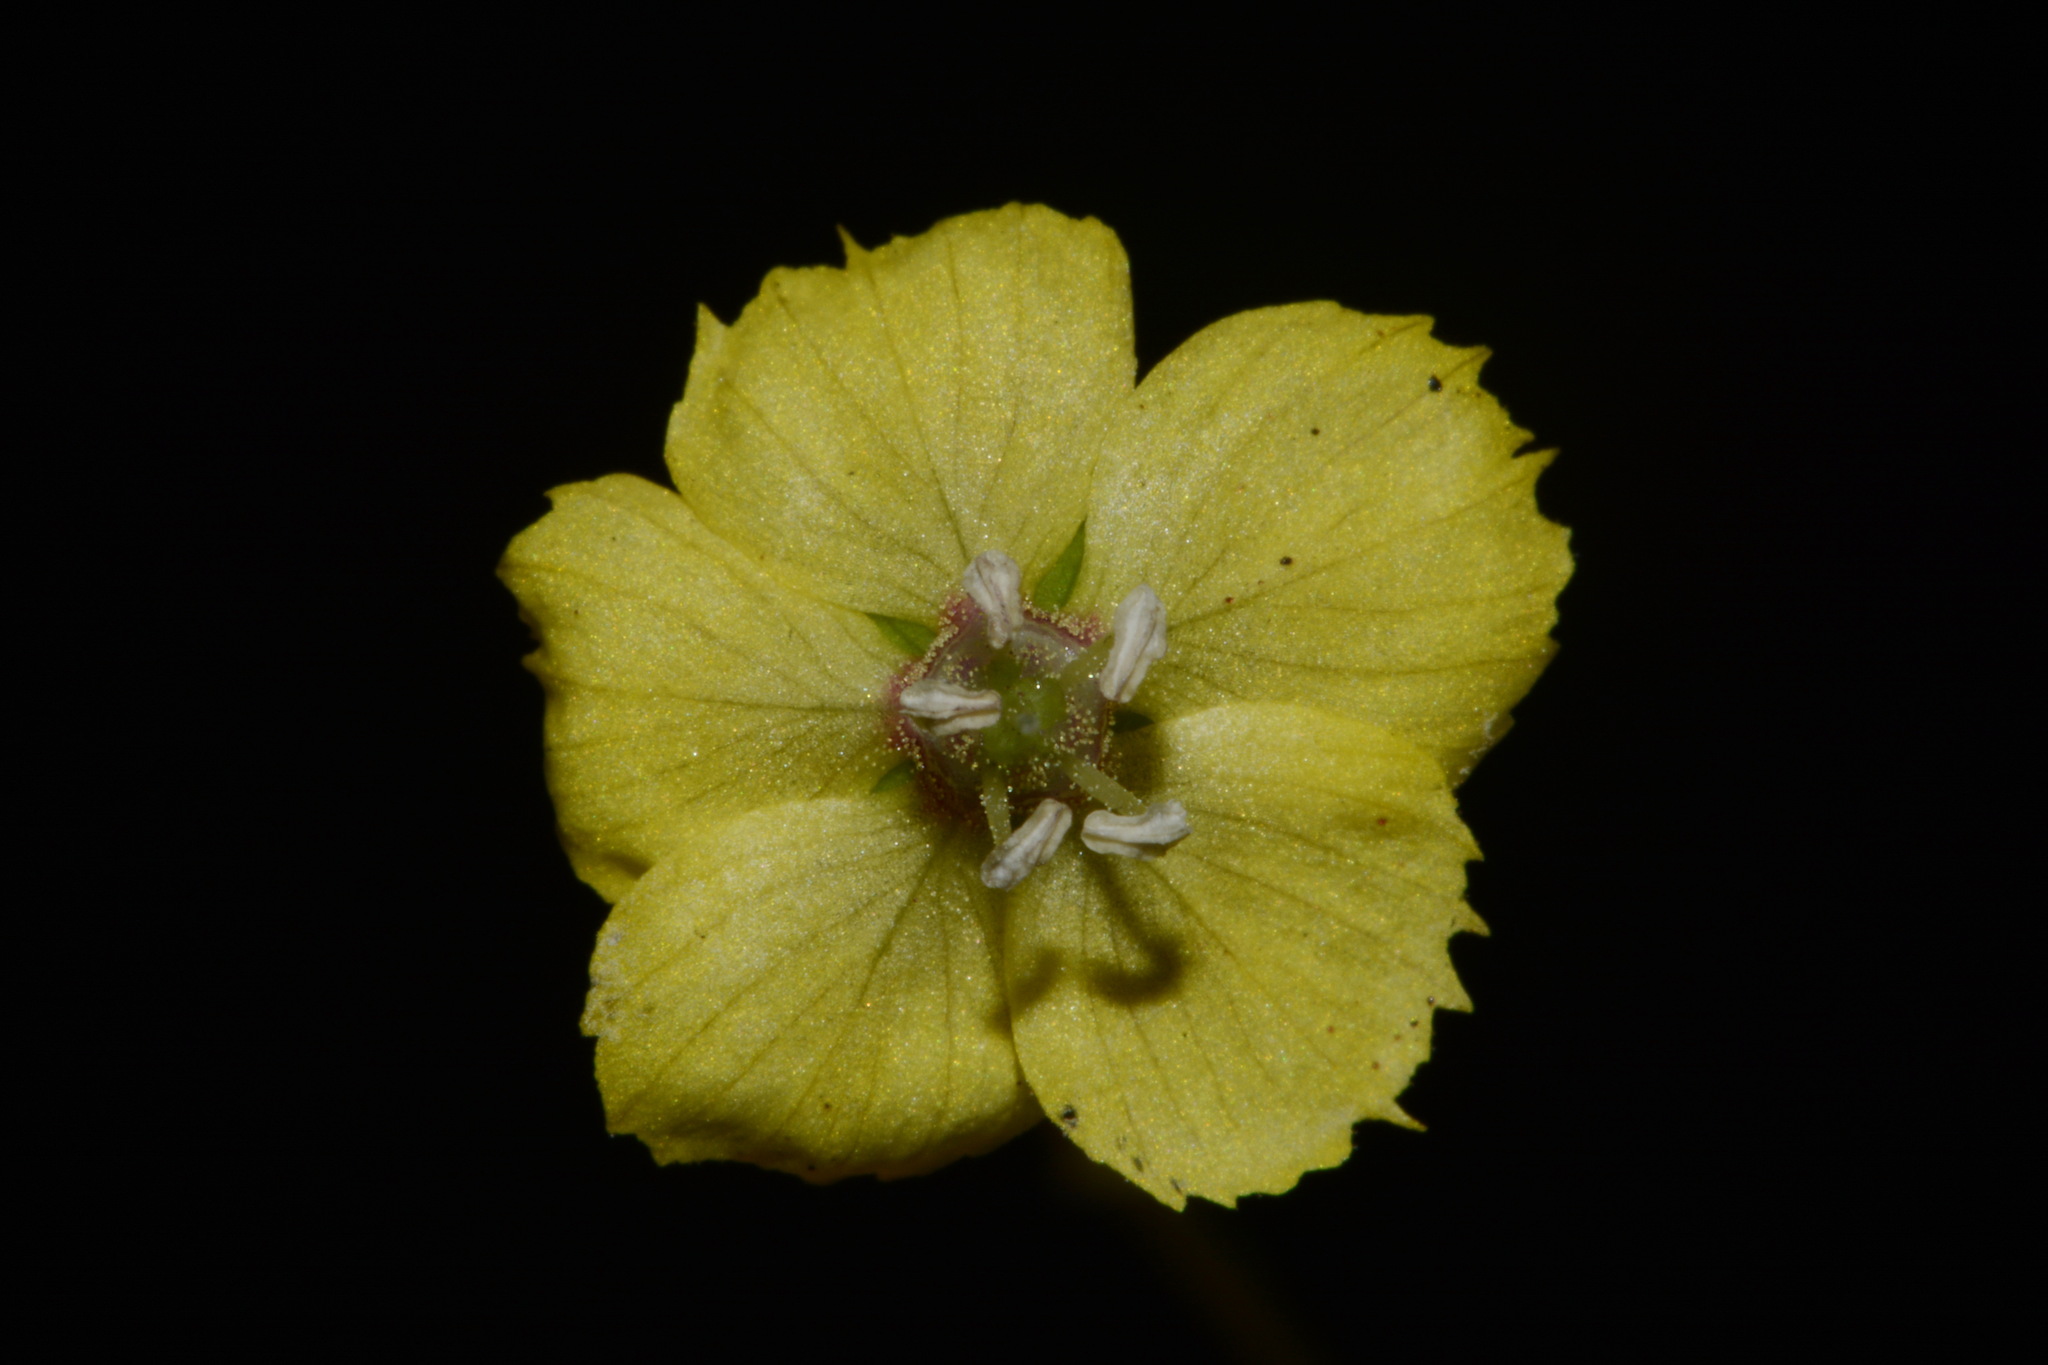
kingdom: Plantae
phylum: Tracheophyta
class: Magnoliopsida
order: Ericales
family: Primulaceae
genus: Lysimachia
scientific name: Lysimachia radicans
